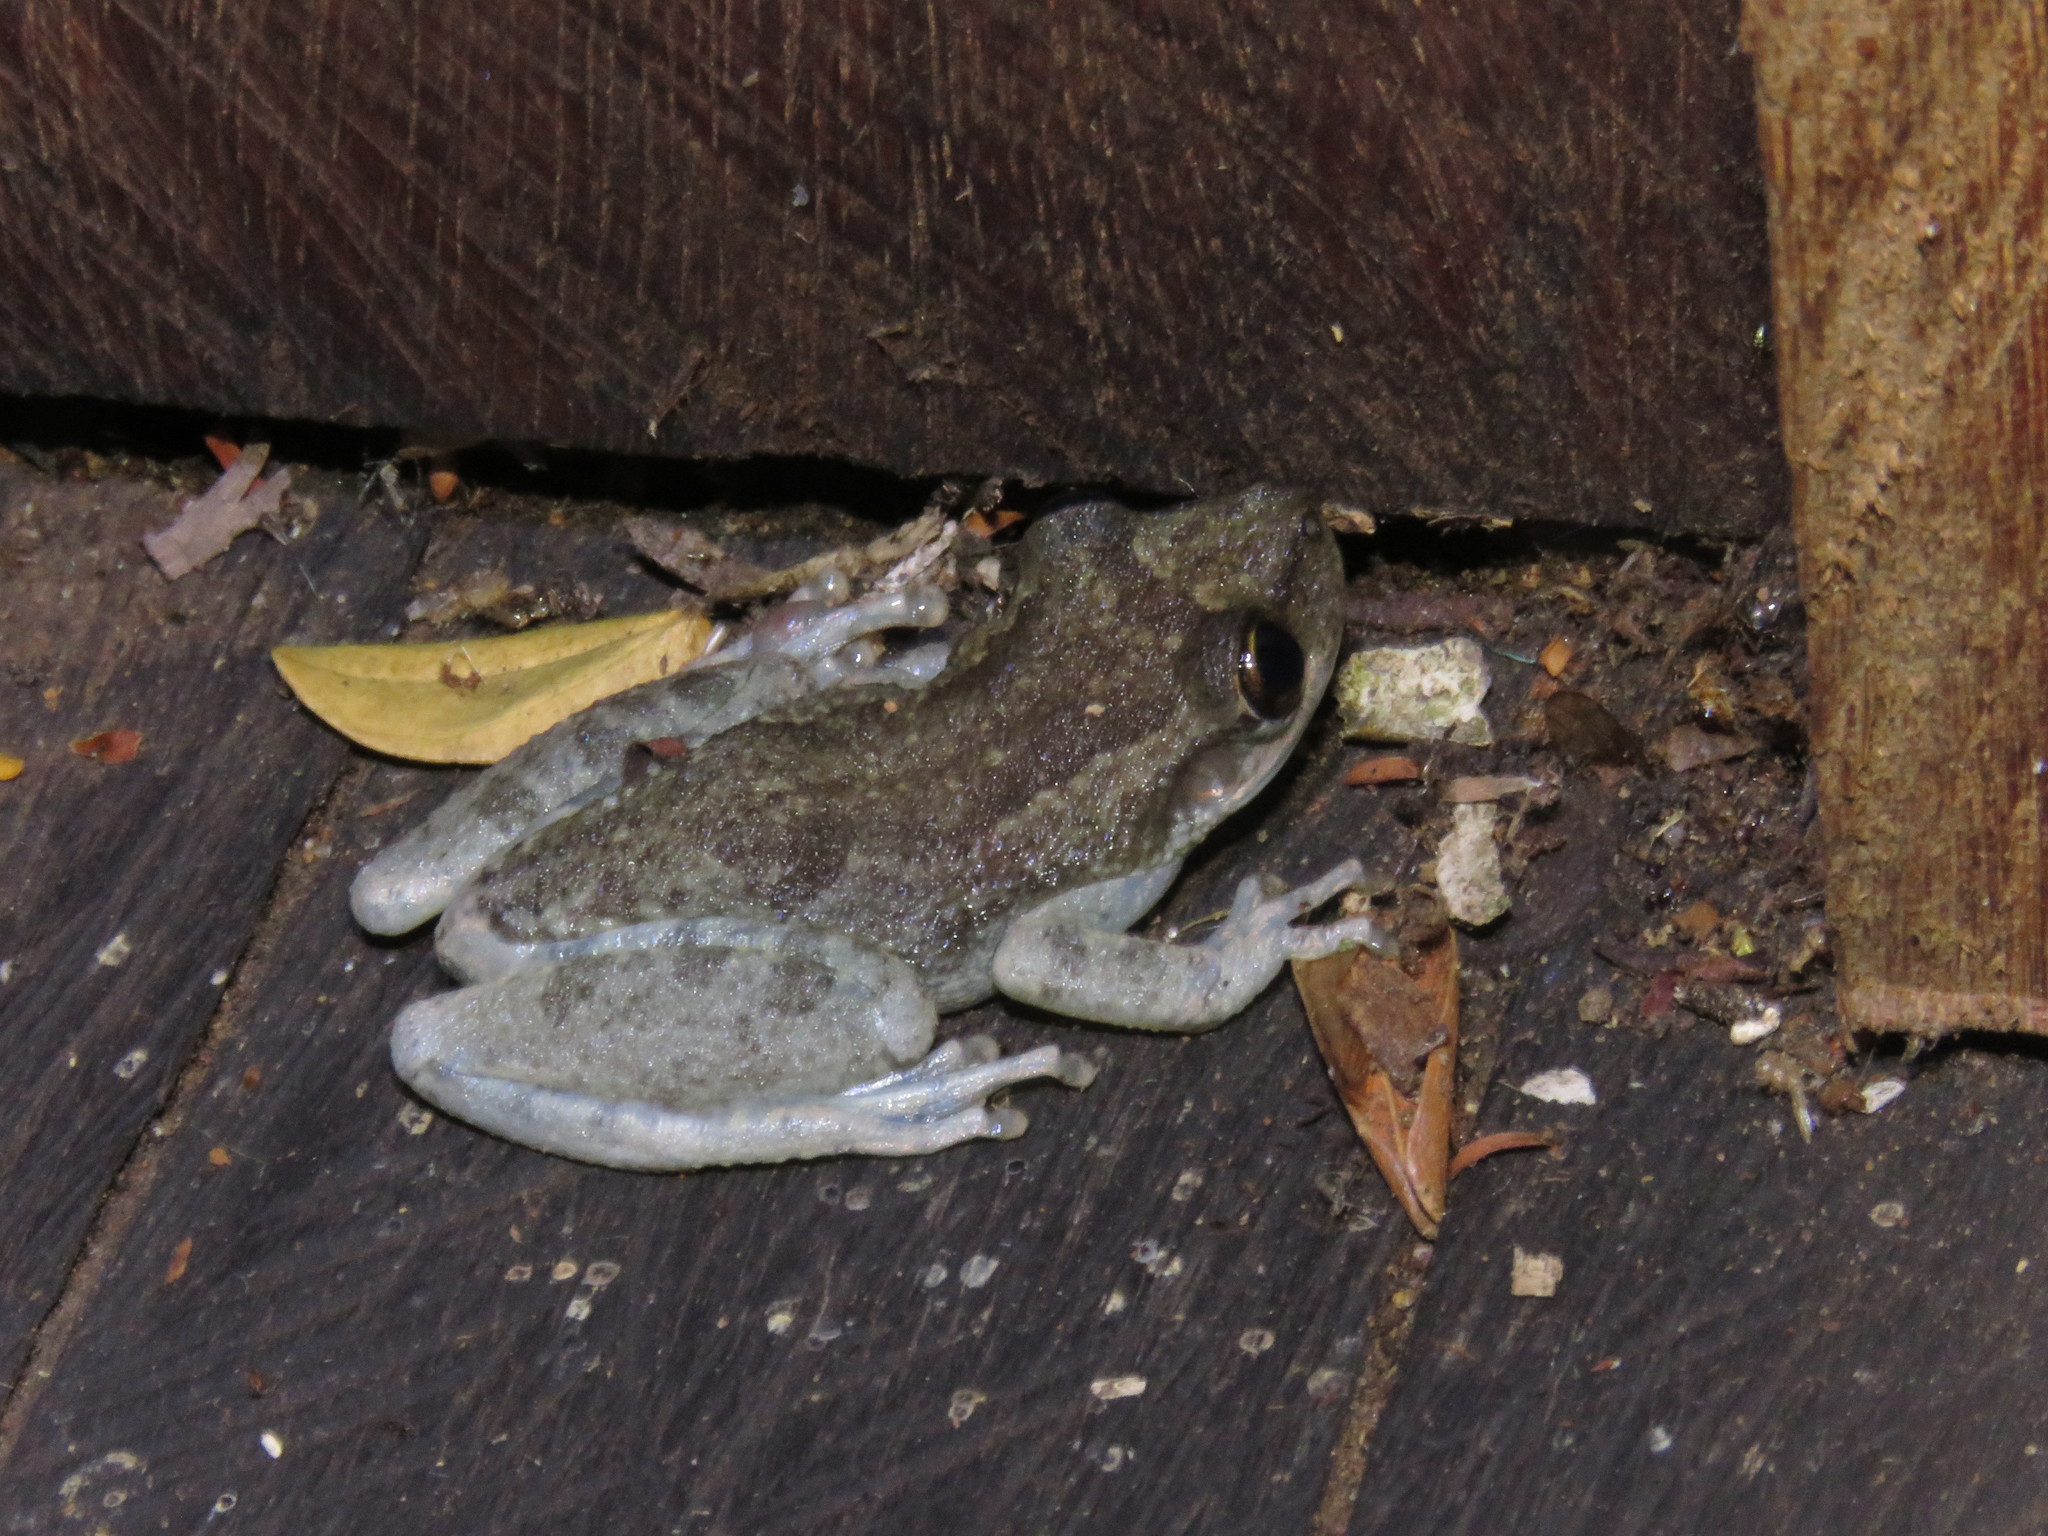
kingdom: Animalia
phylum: Chordata
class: Amphibia
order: Anura
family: Hylidae
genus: Scinax
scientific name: Scinax ruber
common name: Red snouted treefrog
